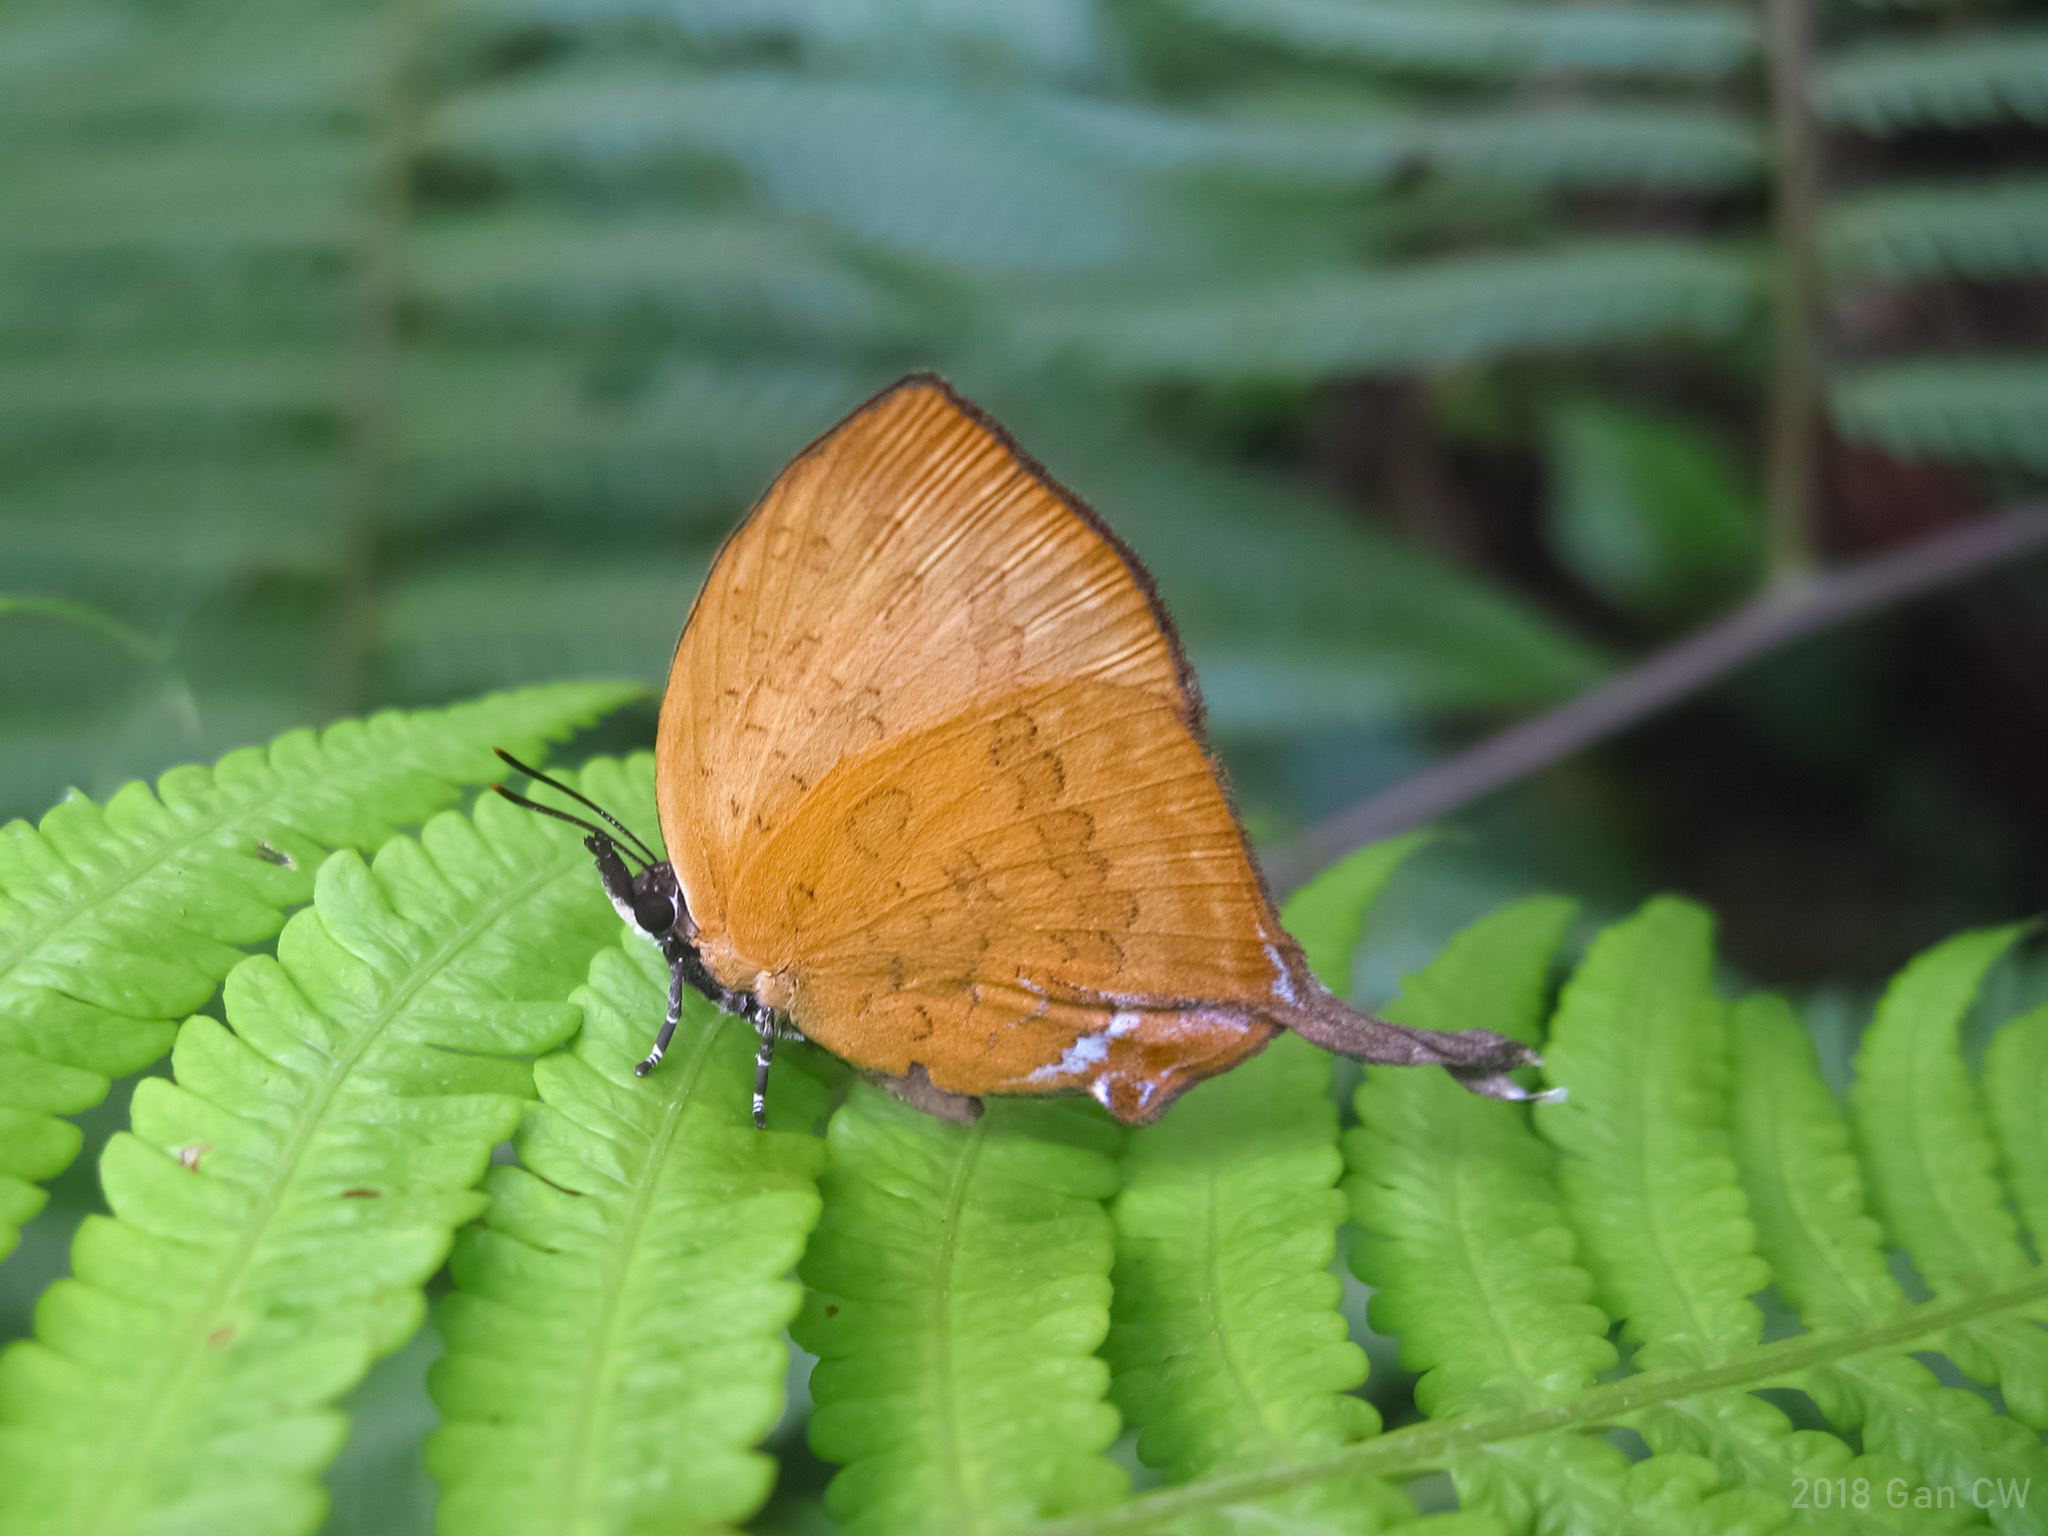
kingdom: Animalia
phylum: Arthropoda
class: Insecta
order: Lepidoptera
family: Lycaenidae
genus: Yasoda
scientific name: Yasoda pita
